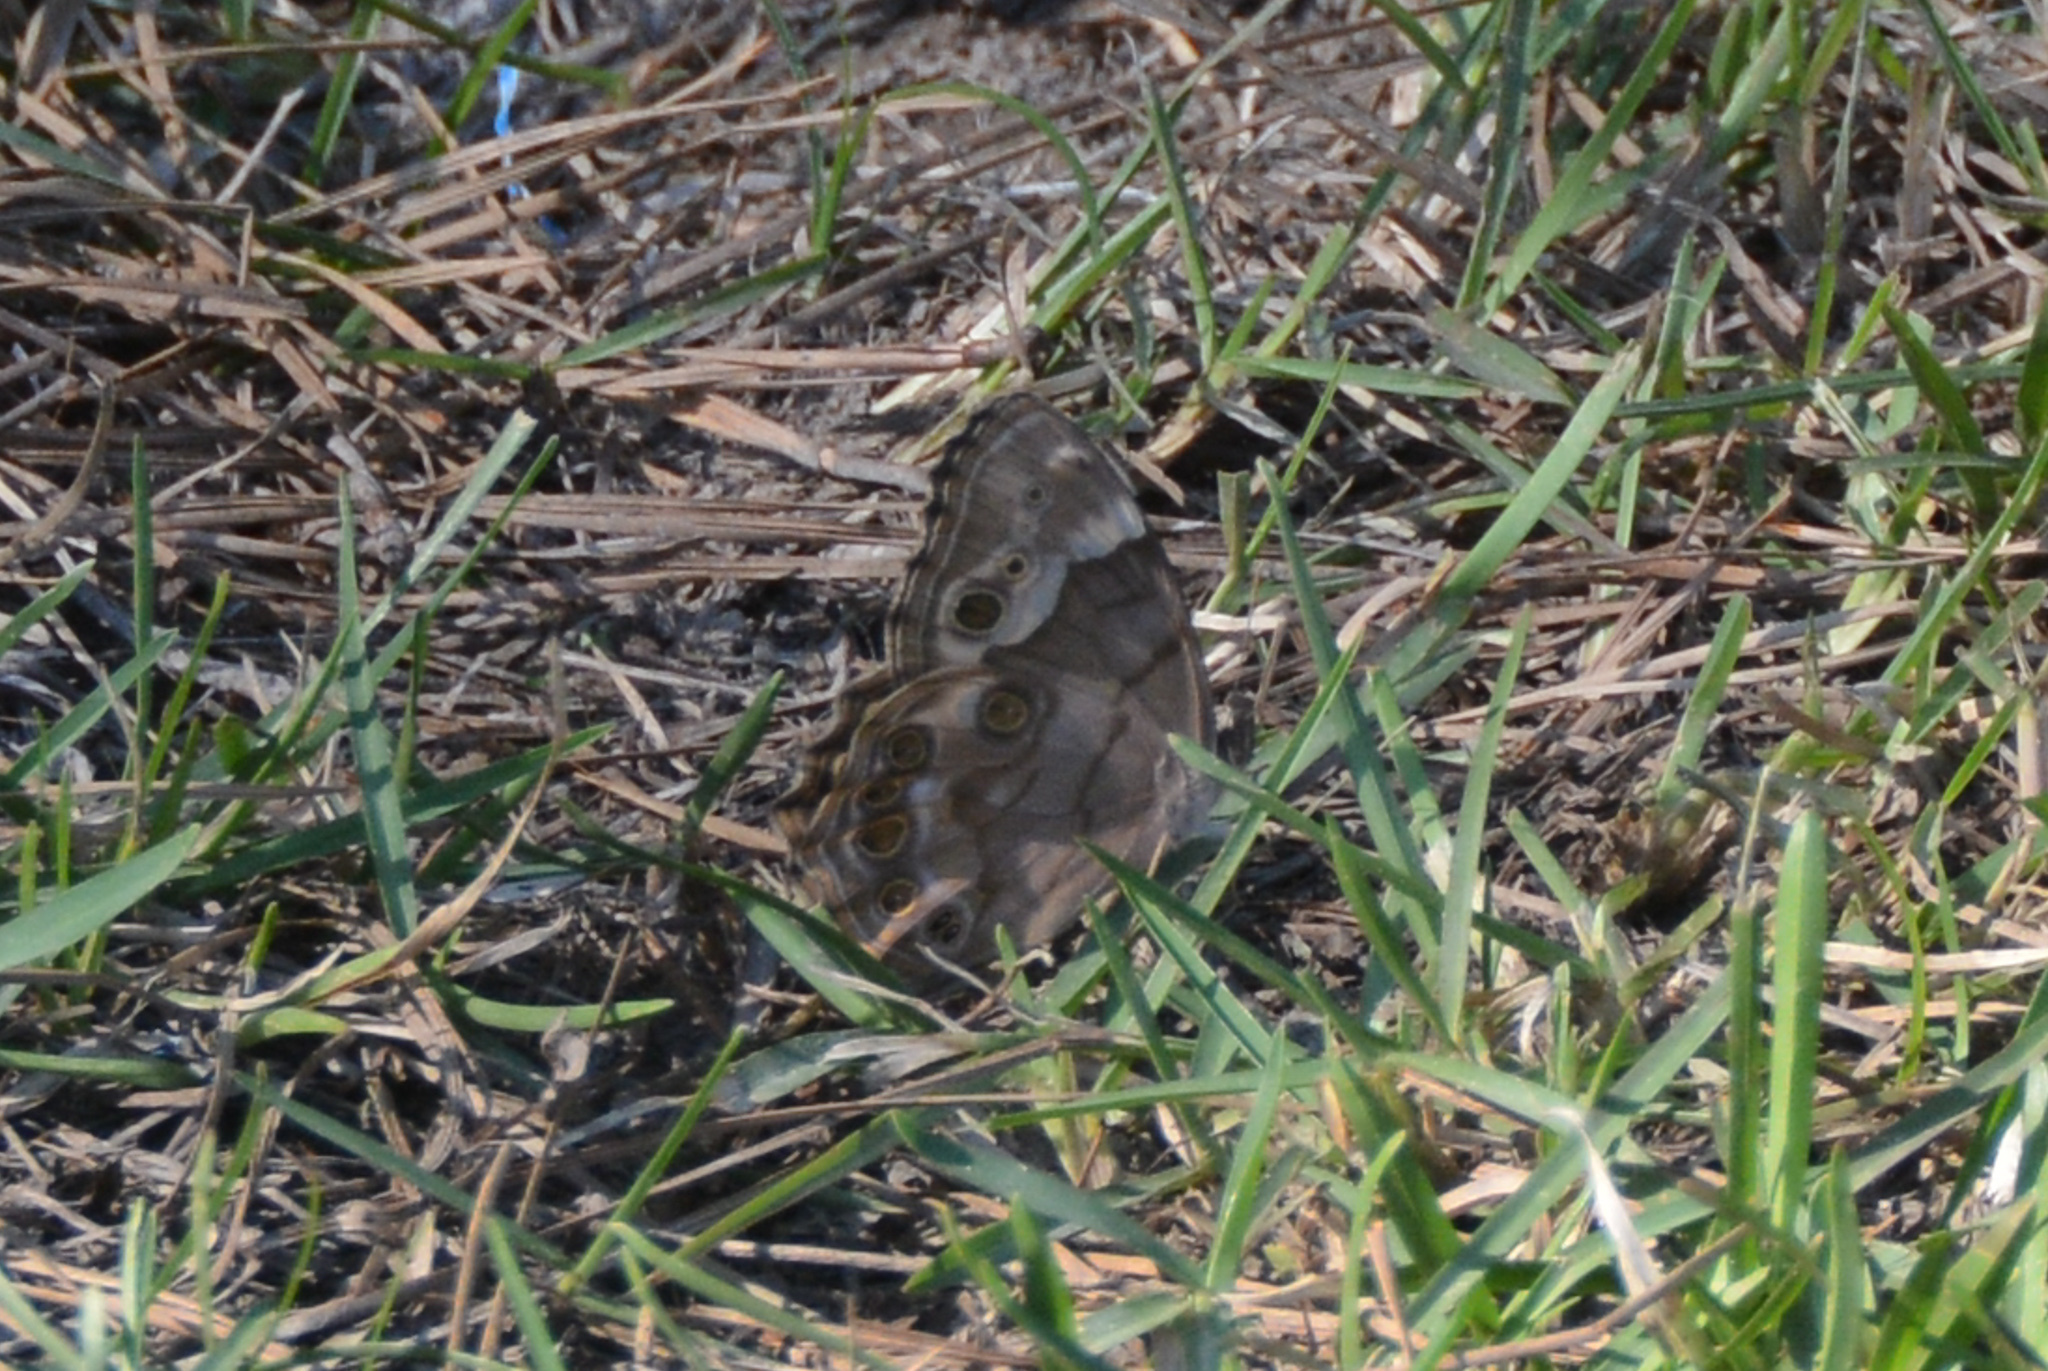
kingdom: Animalia
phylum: Arthropoda
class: Insecta
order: Lepidoptera
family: Nymphalidae
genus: Enodia
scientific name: Enodia portlandia
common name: Southern pearly-eye
